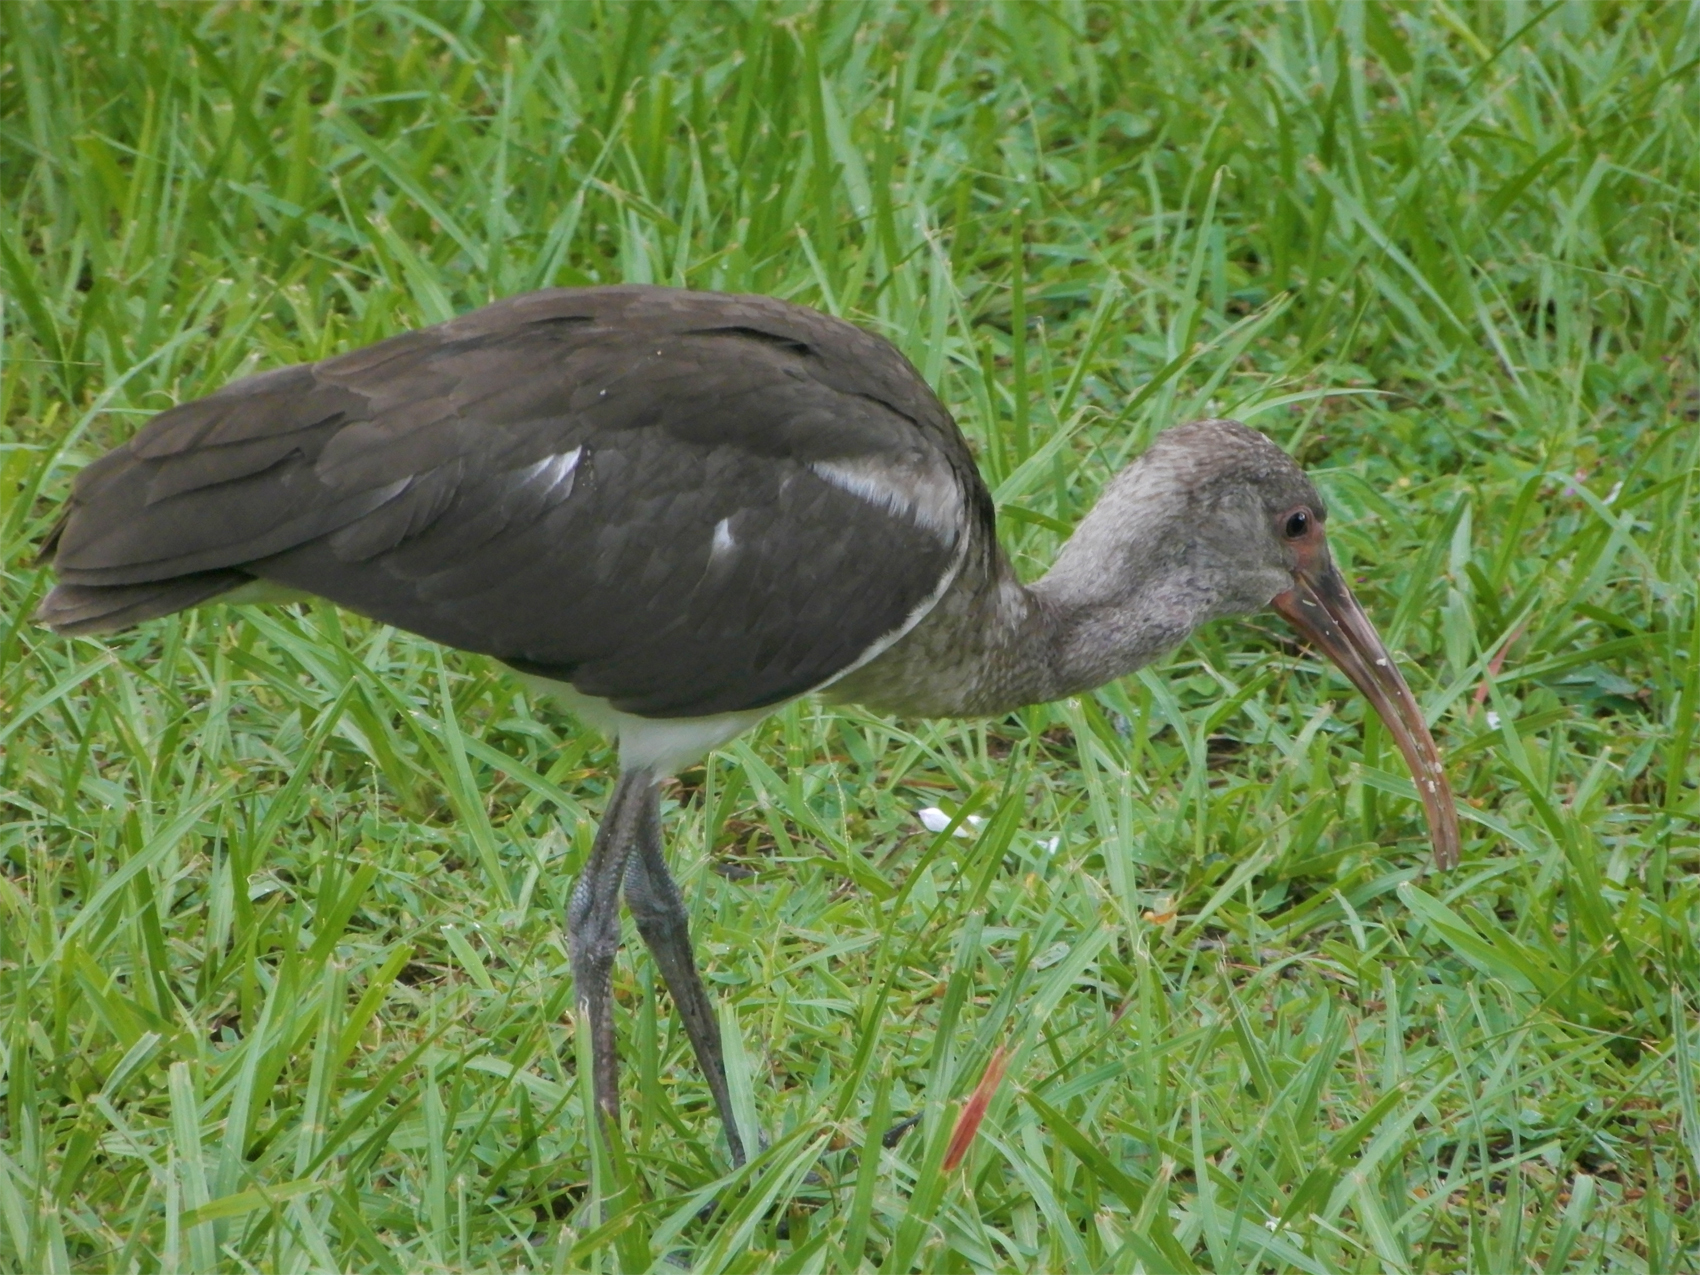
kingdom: Animalia
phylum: Chordata
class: Aves
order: Pelecaniformes
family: Threskiornithidae
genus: Eudocimus
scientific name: Eudocimus albus
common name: White ibis
